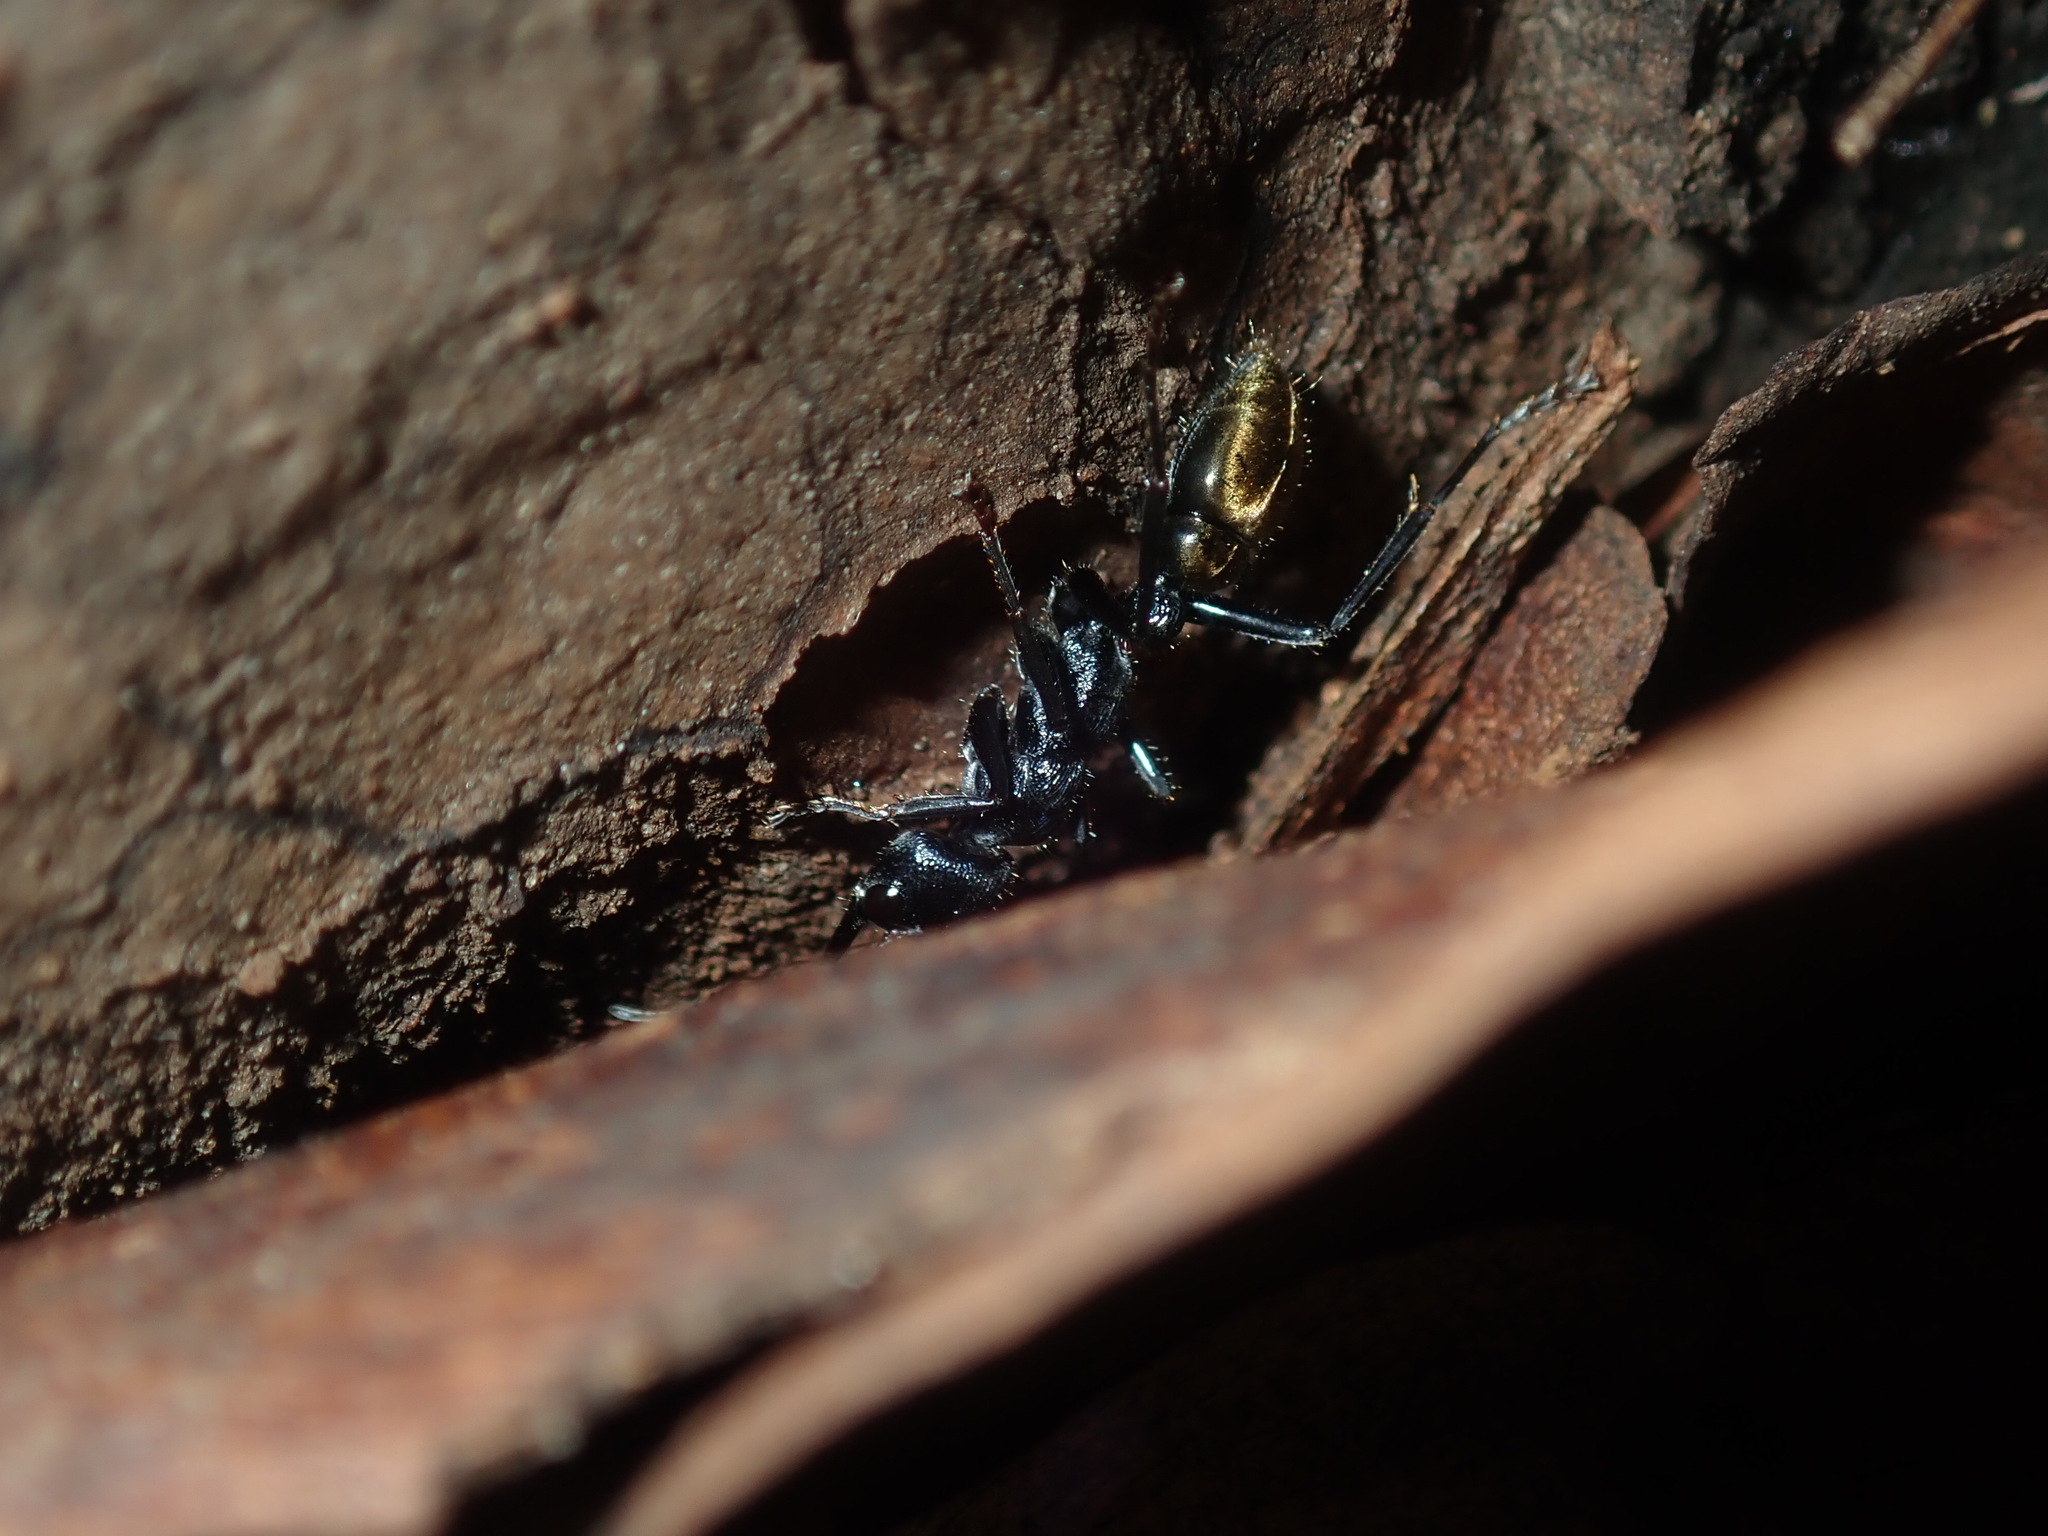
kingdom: Animalia
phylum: Arthropoda
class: Insecta
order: Hymenoptera
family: Formicidae
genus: Myrmecia
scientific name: Myrmecia piliventris
